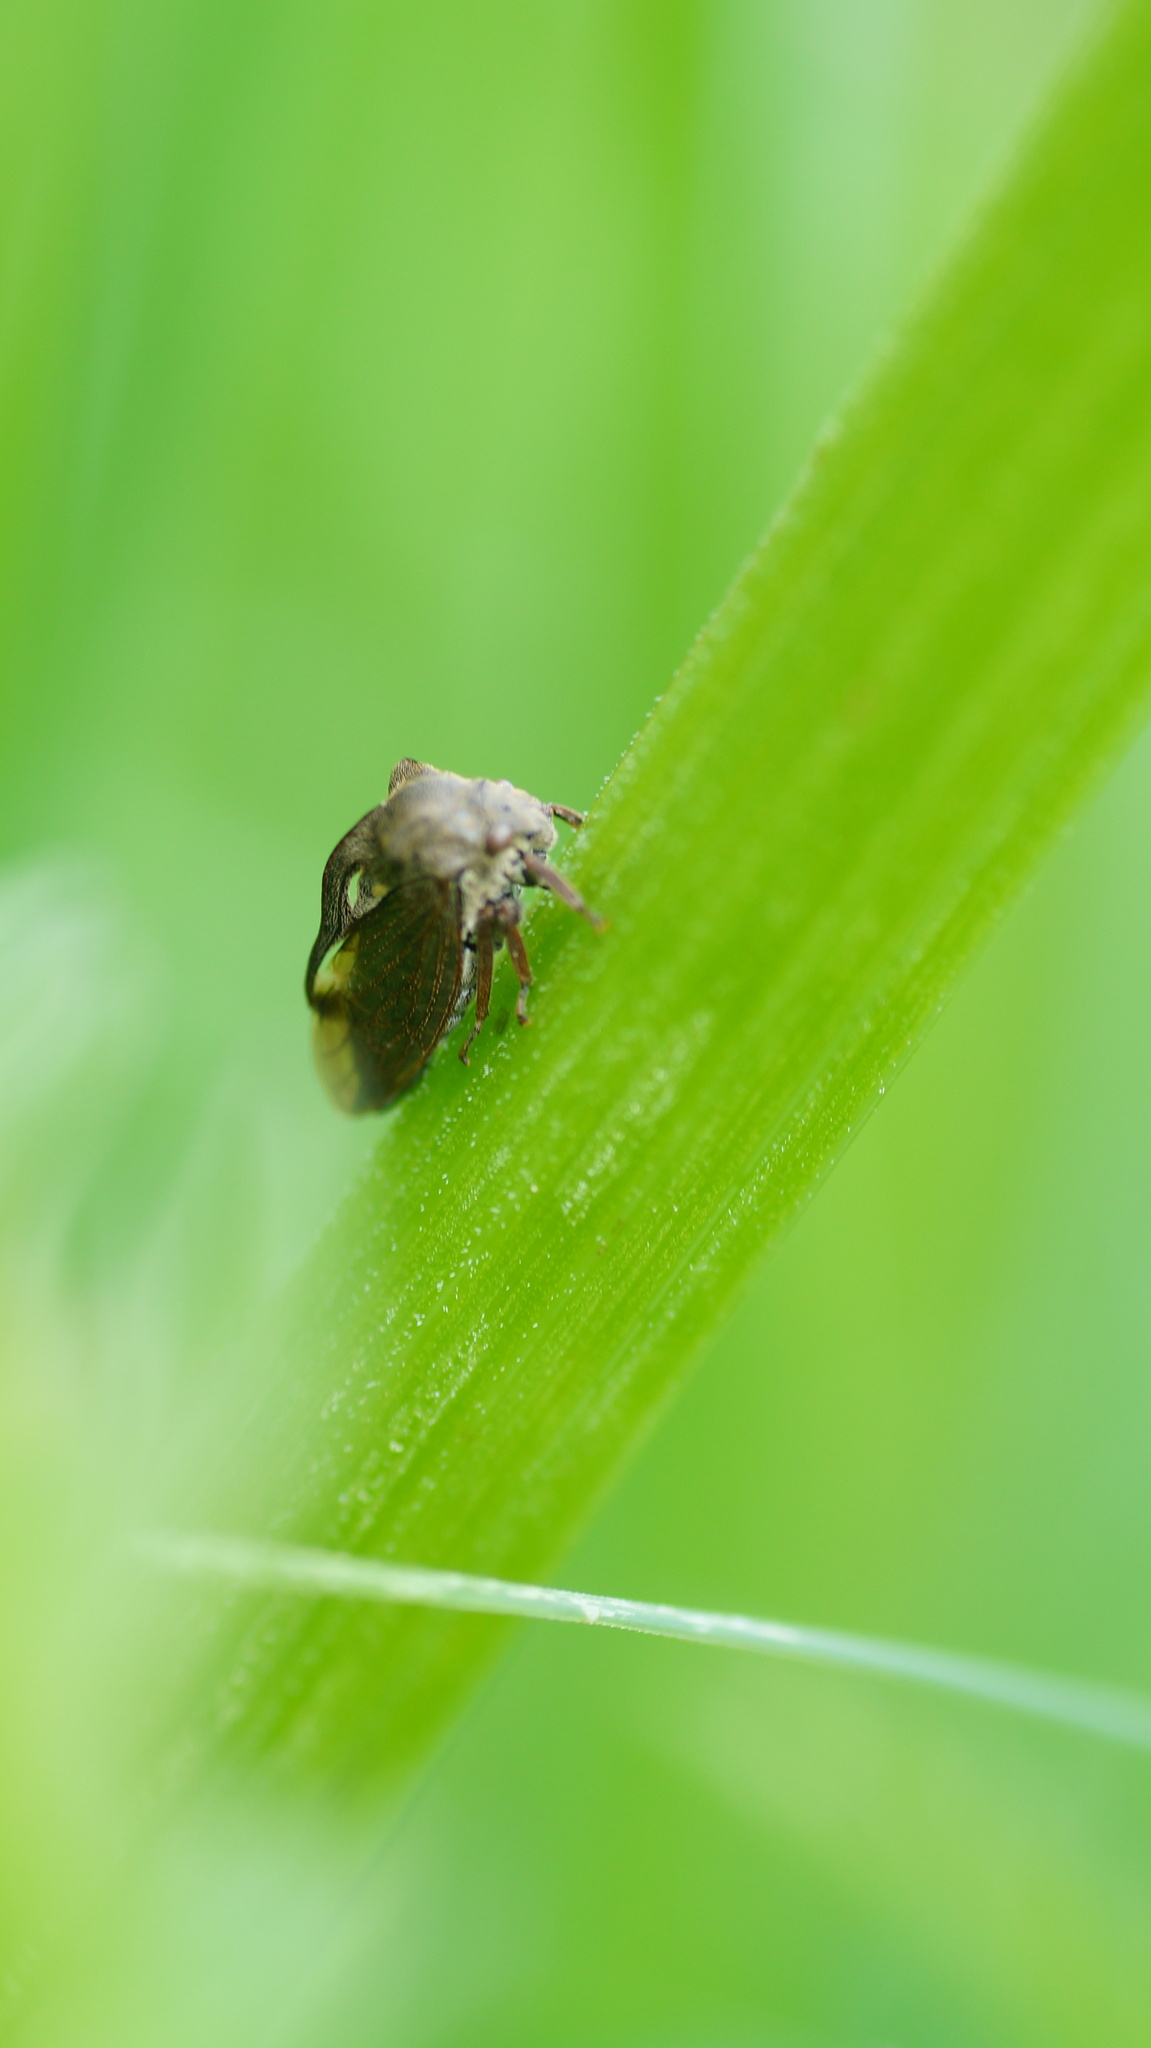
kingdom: Animalia
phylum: Arthropoda
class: Insecta
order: Hemiptera
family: Membracidae
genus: Centrotus
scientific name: Centrotus cornuta
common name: Treehopper
